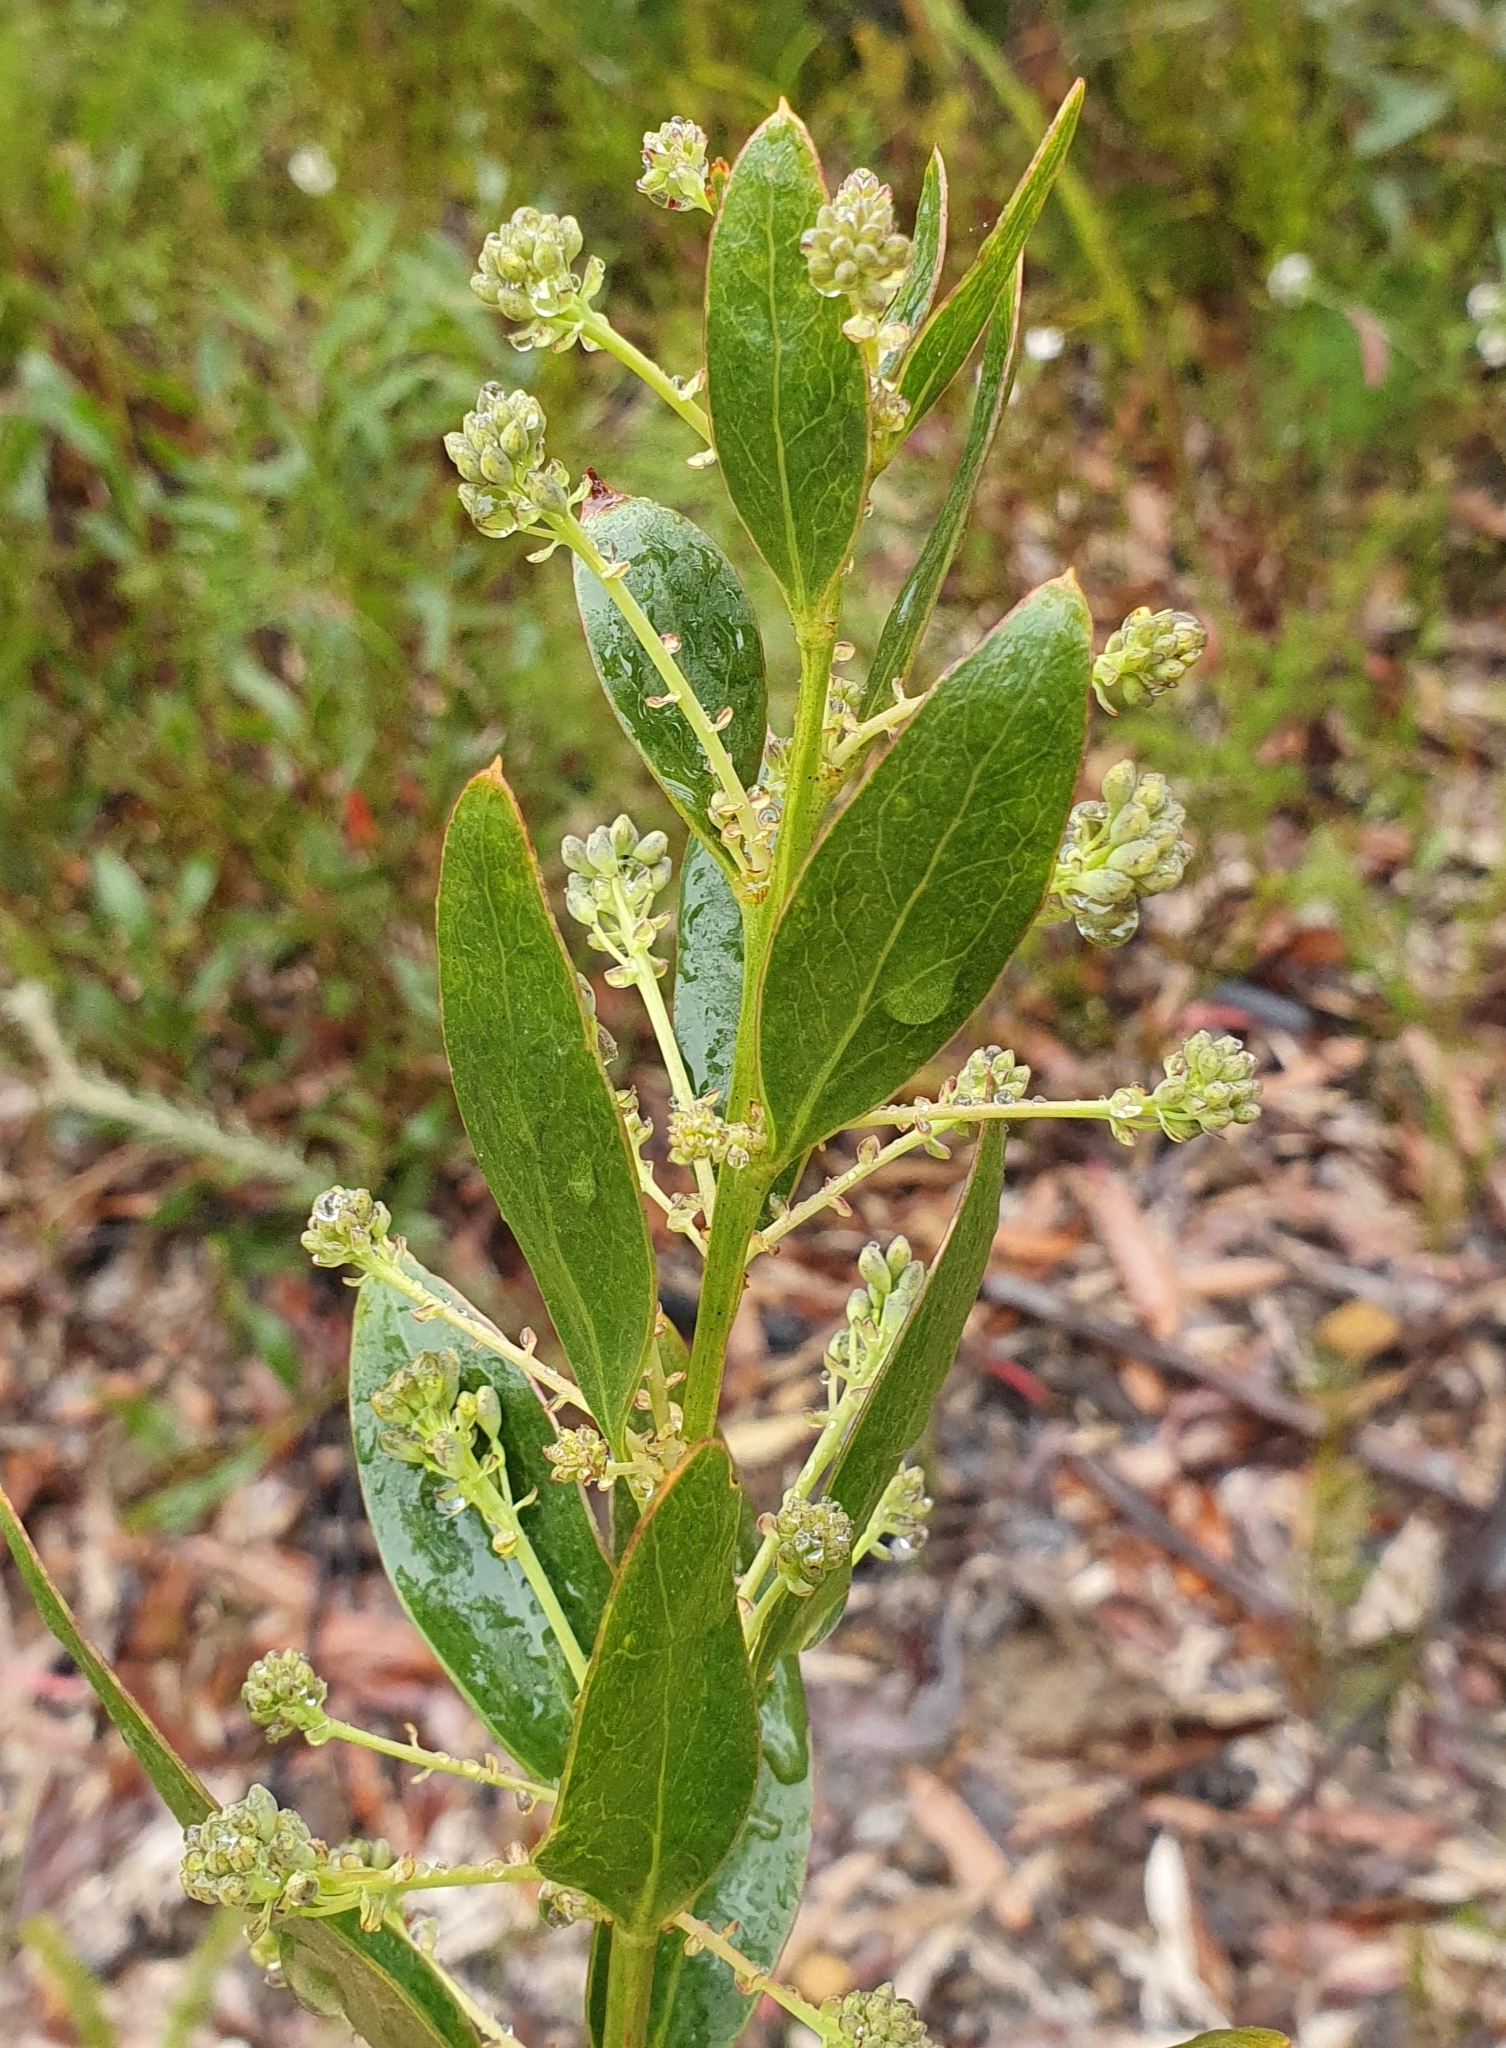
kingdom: Plantae
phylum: Tracheophyta
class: Magnoliopsida
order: Fabales
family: Fabaceae
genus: Daviesia
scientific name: Daviesia corymbosa
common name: Narrow-leaf bitter-pea
